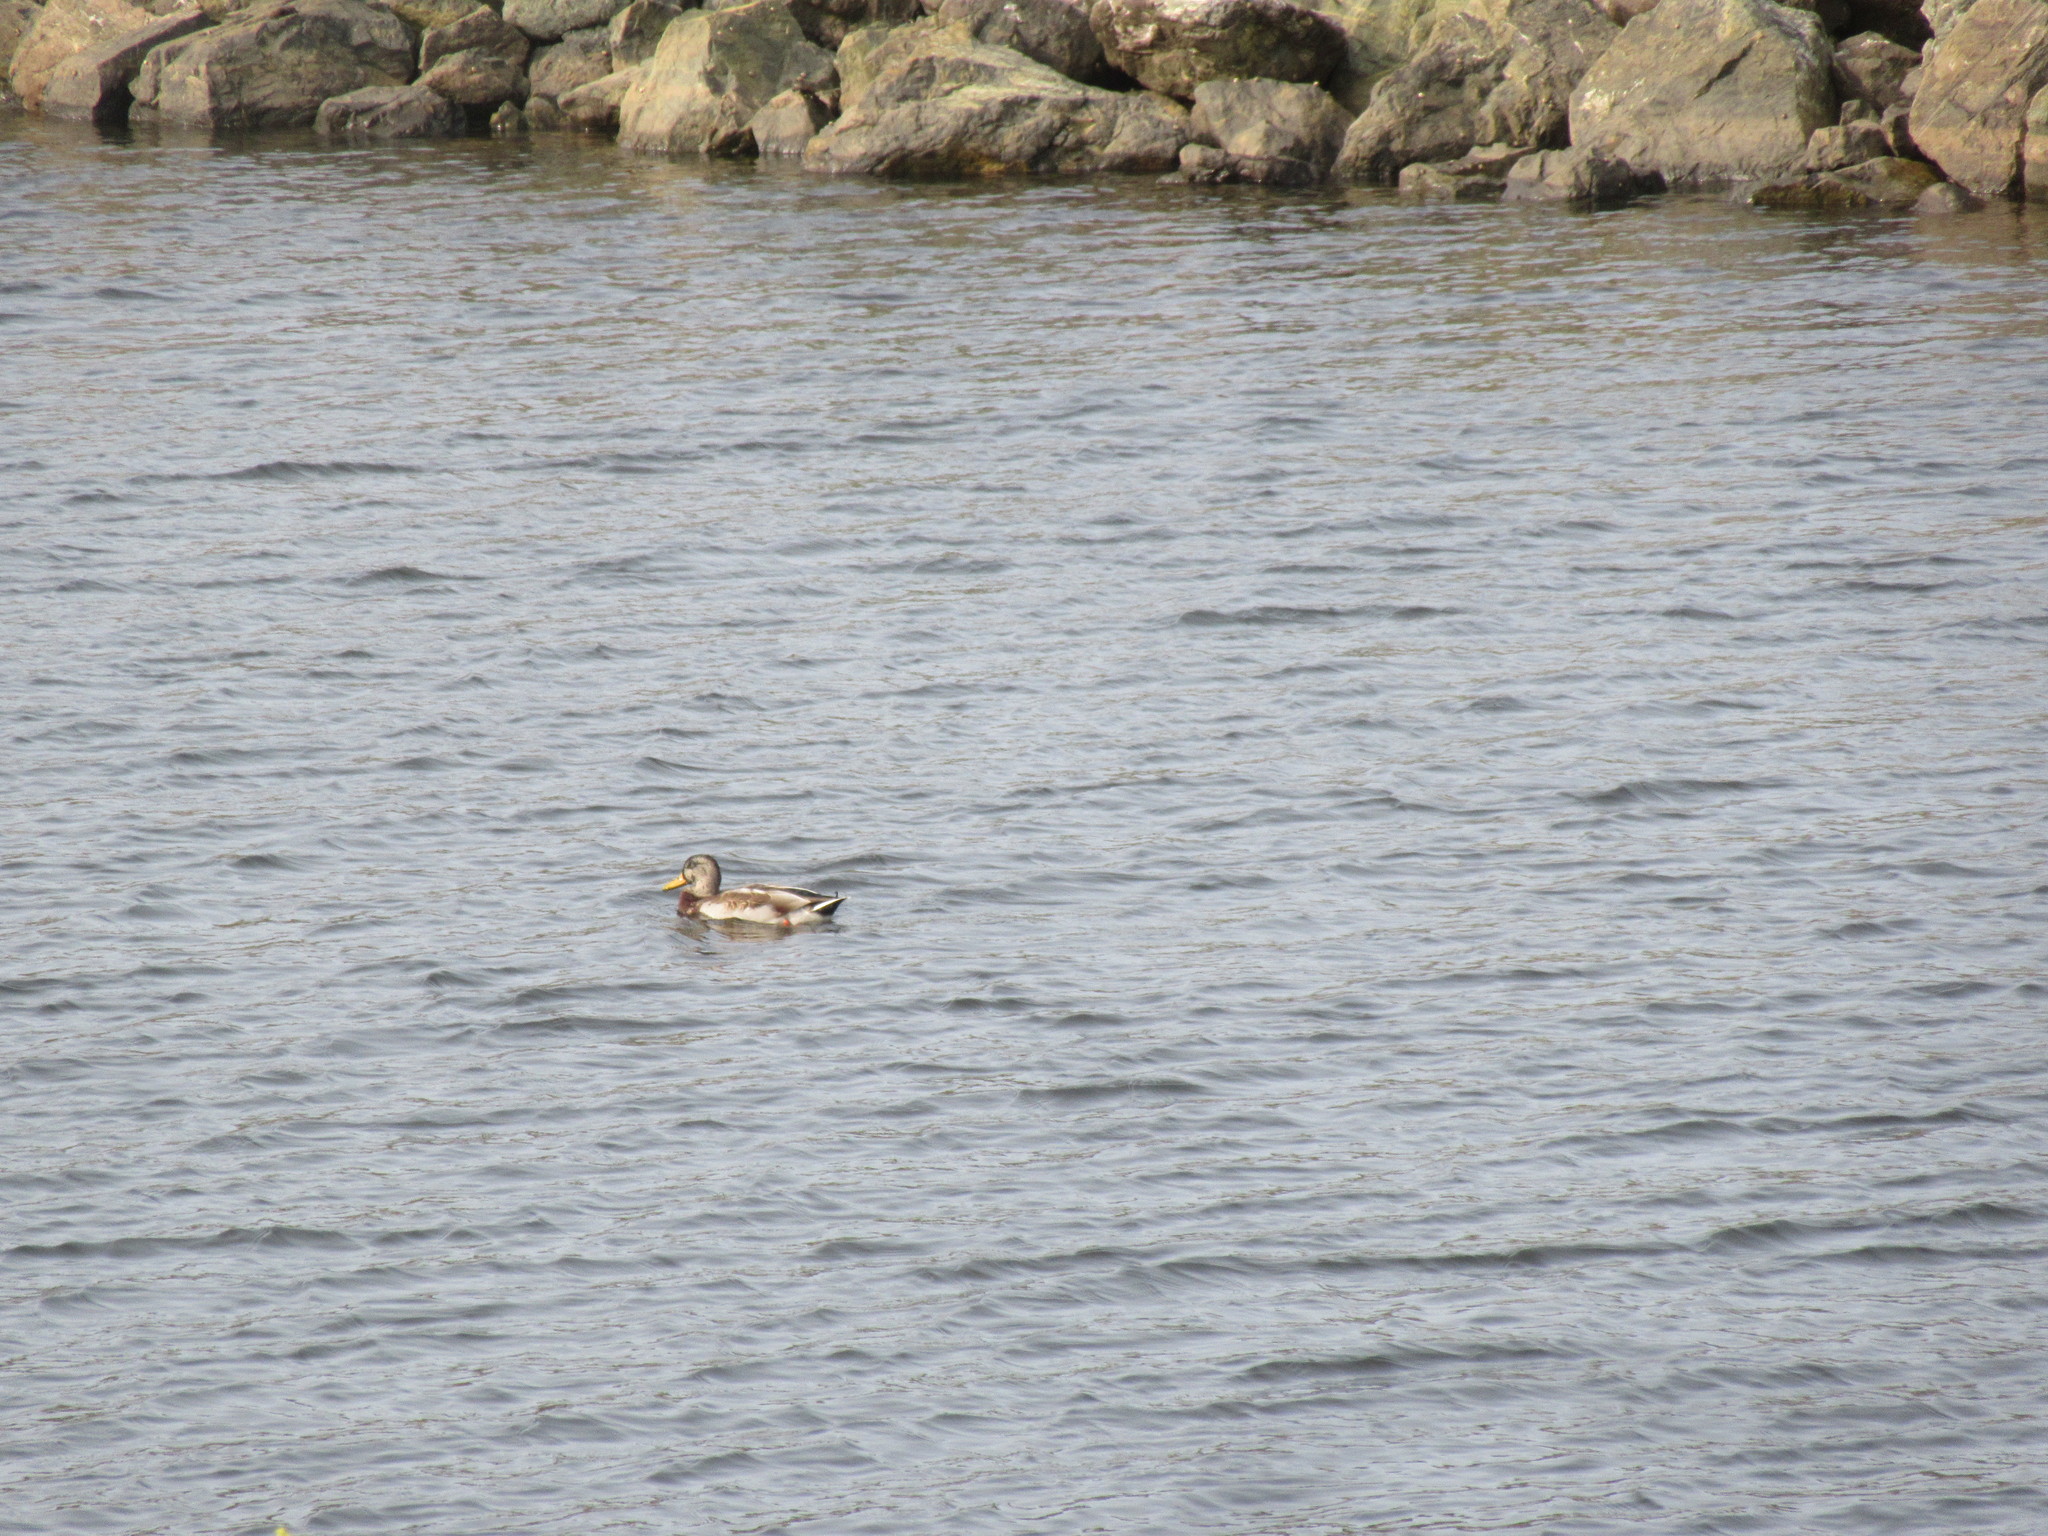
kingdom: Animalia
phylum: Chordata
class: Aves
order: Anseriformes
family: Anatidae
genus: Anas
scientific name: Anas platyrhynchos
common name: Mallard
